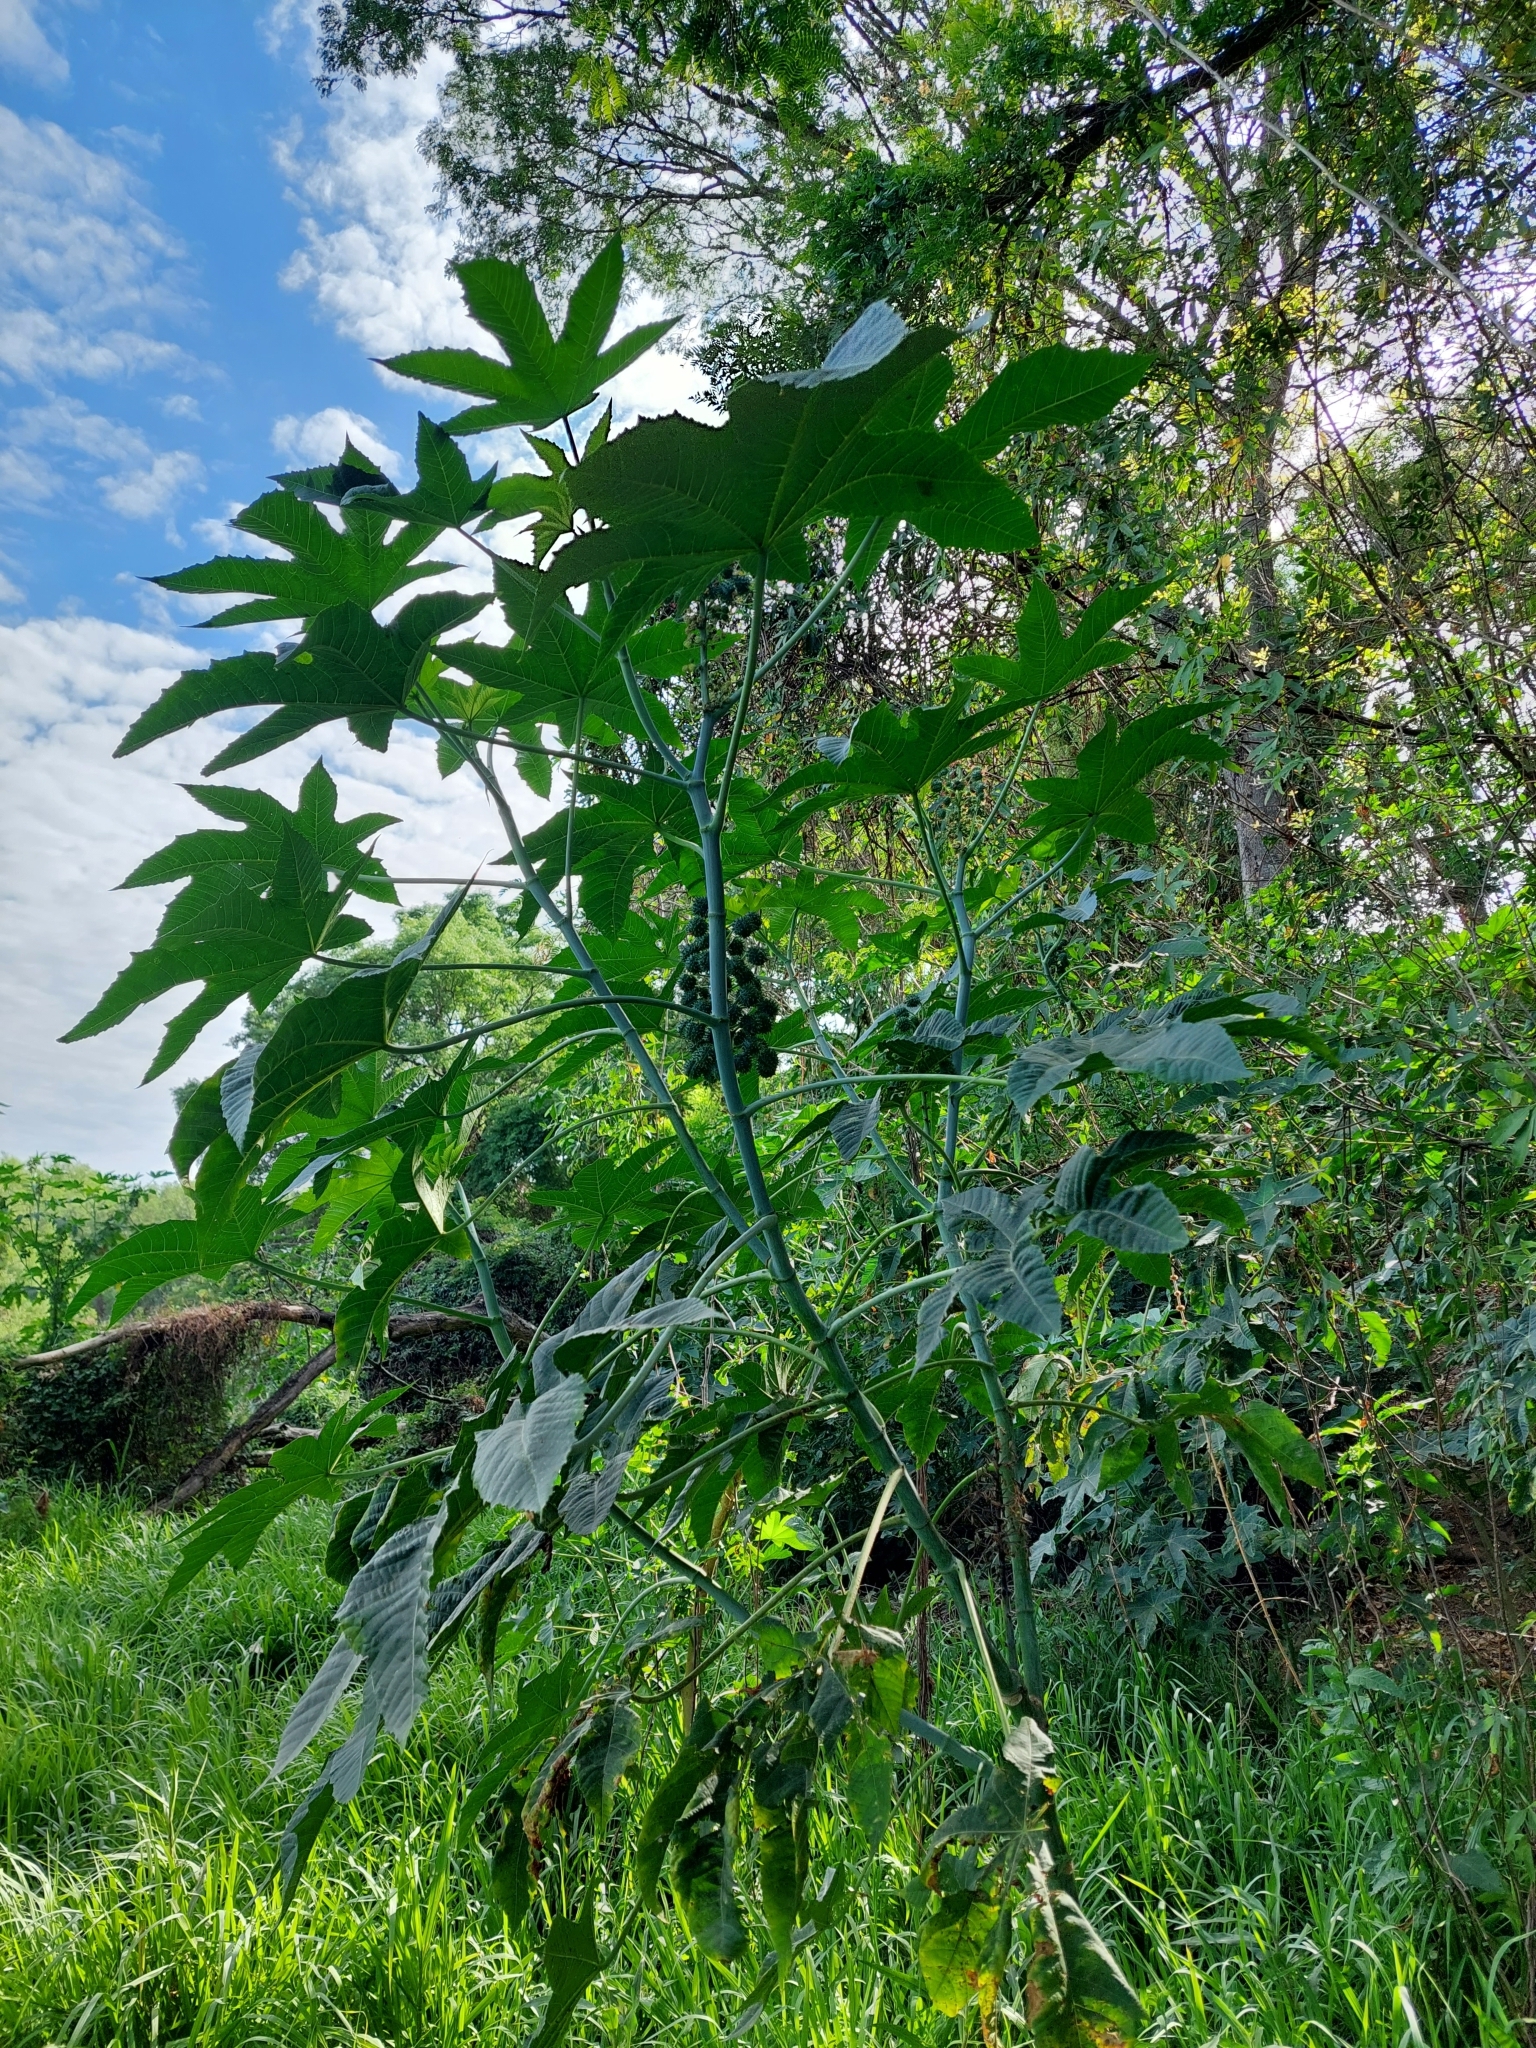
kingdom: Plantae
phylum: Tracheophyta
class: Magnoliopsida
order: Malpighiales
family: Euphorbiaceae
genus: Ricinus
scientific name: Ricinus communis
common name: Castor-oil-plant
